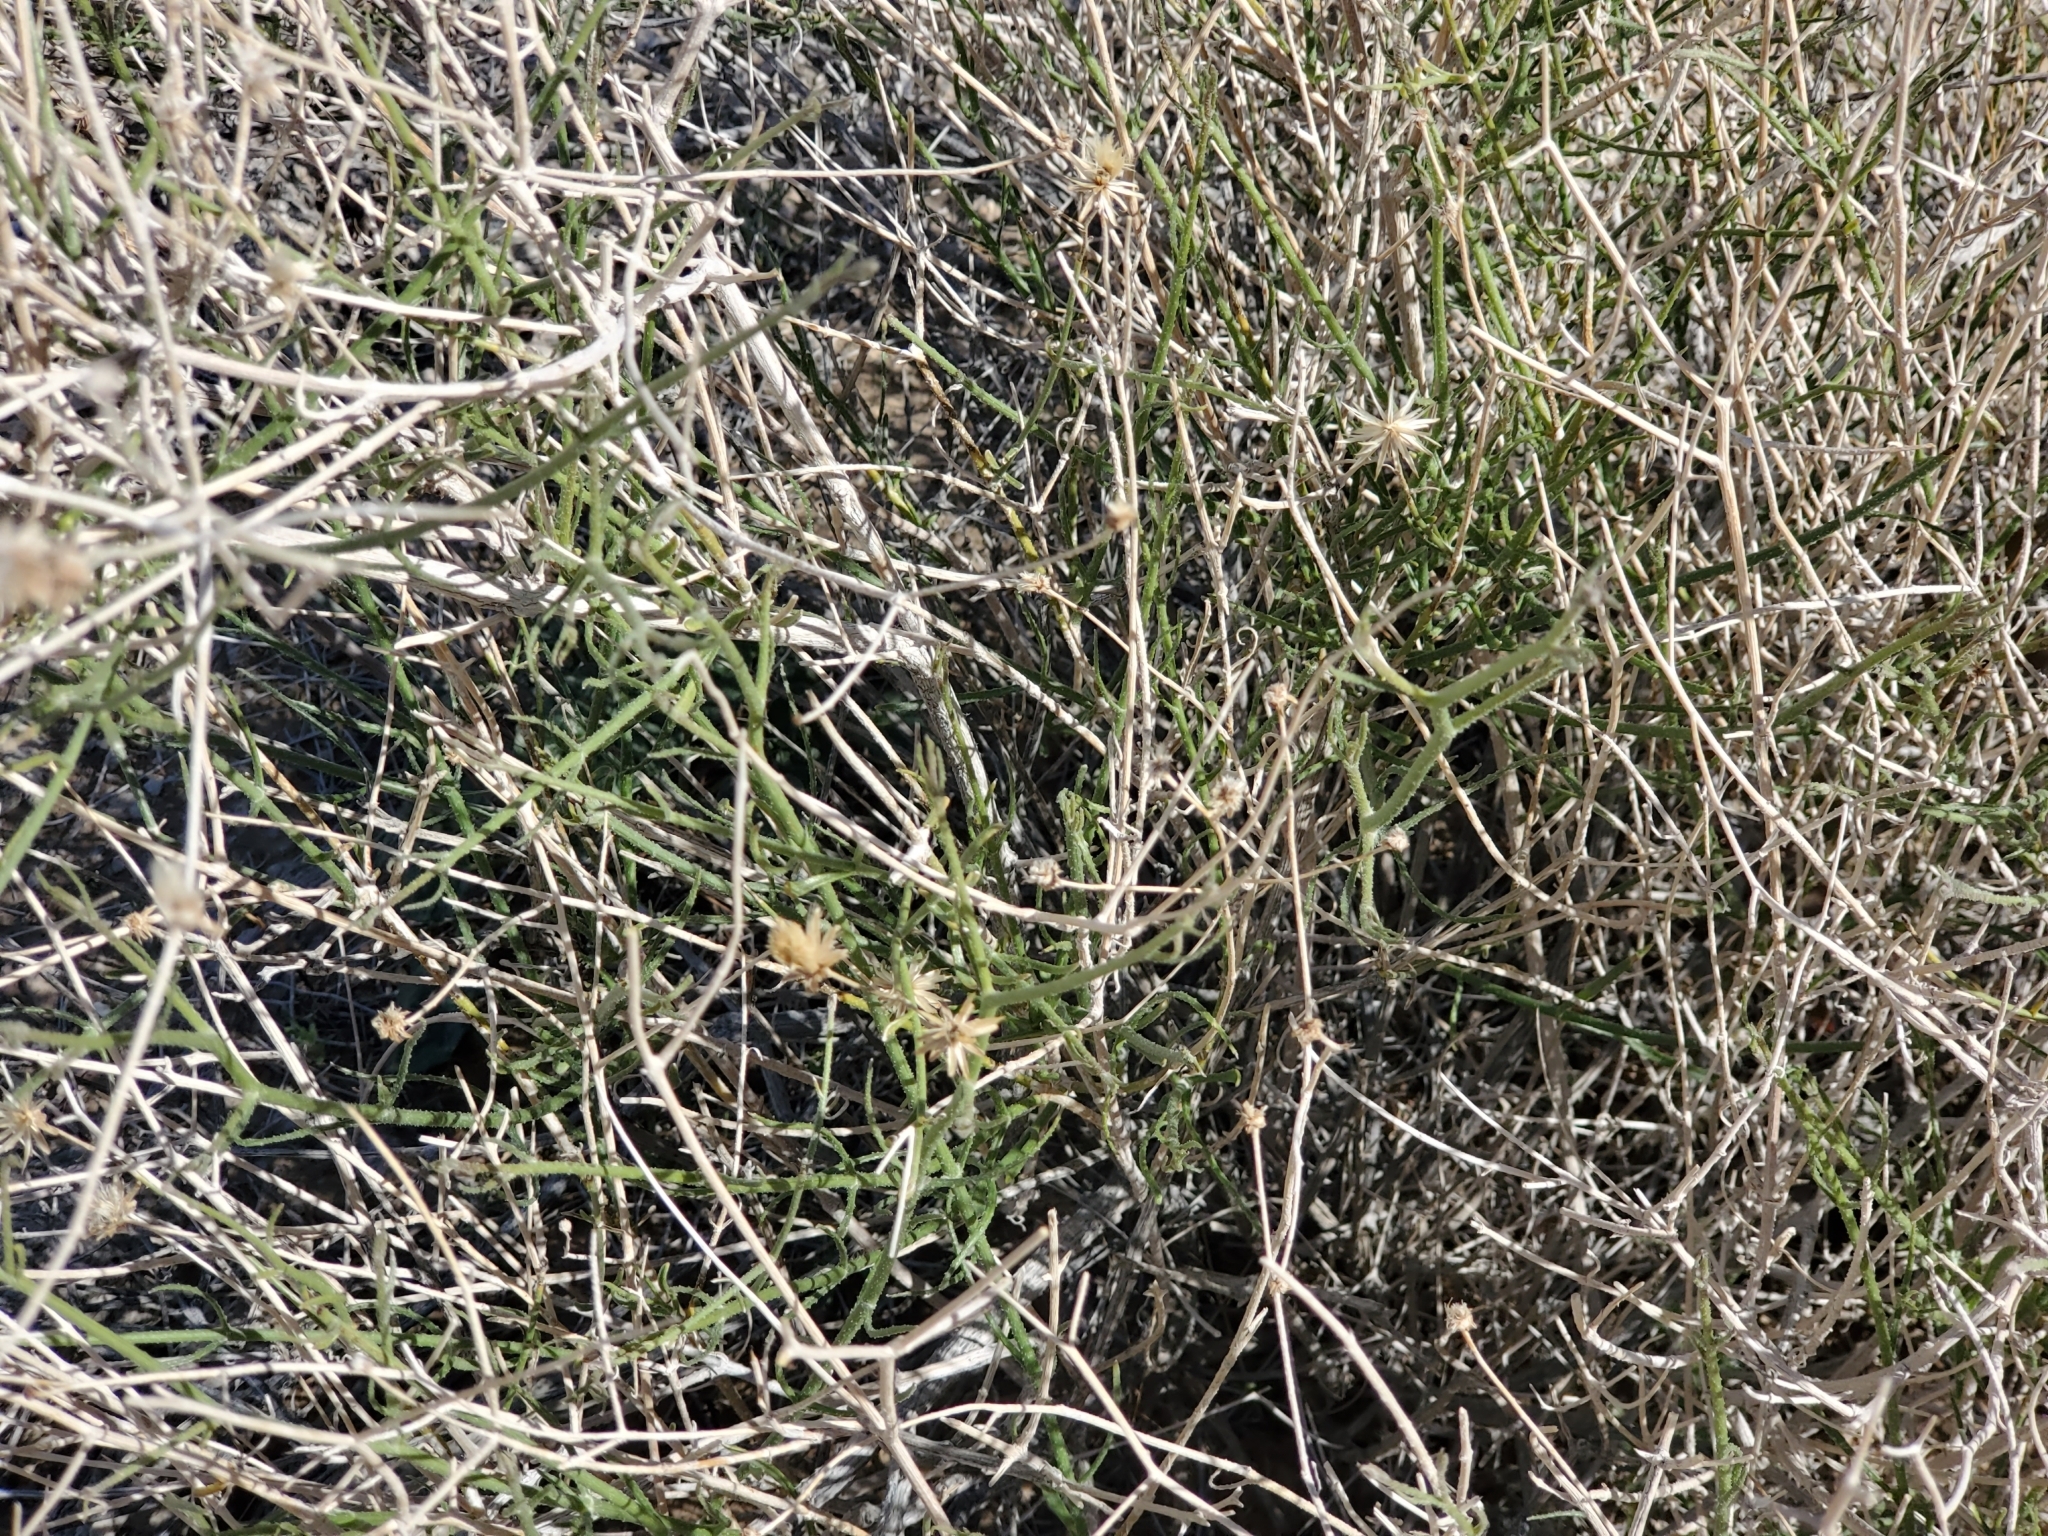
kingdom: Plantae
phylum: Tracheophyta
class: Magnoliopsida
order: Asterales
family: Asteraceae
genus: Bebbia
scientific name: Bebbia juncea
